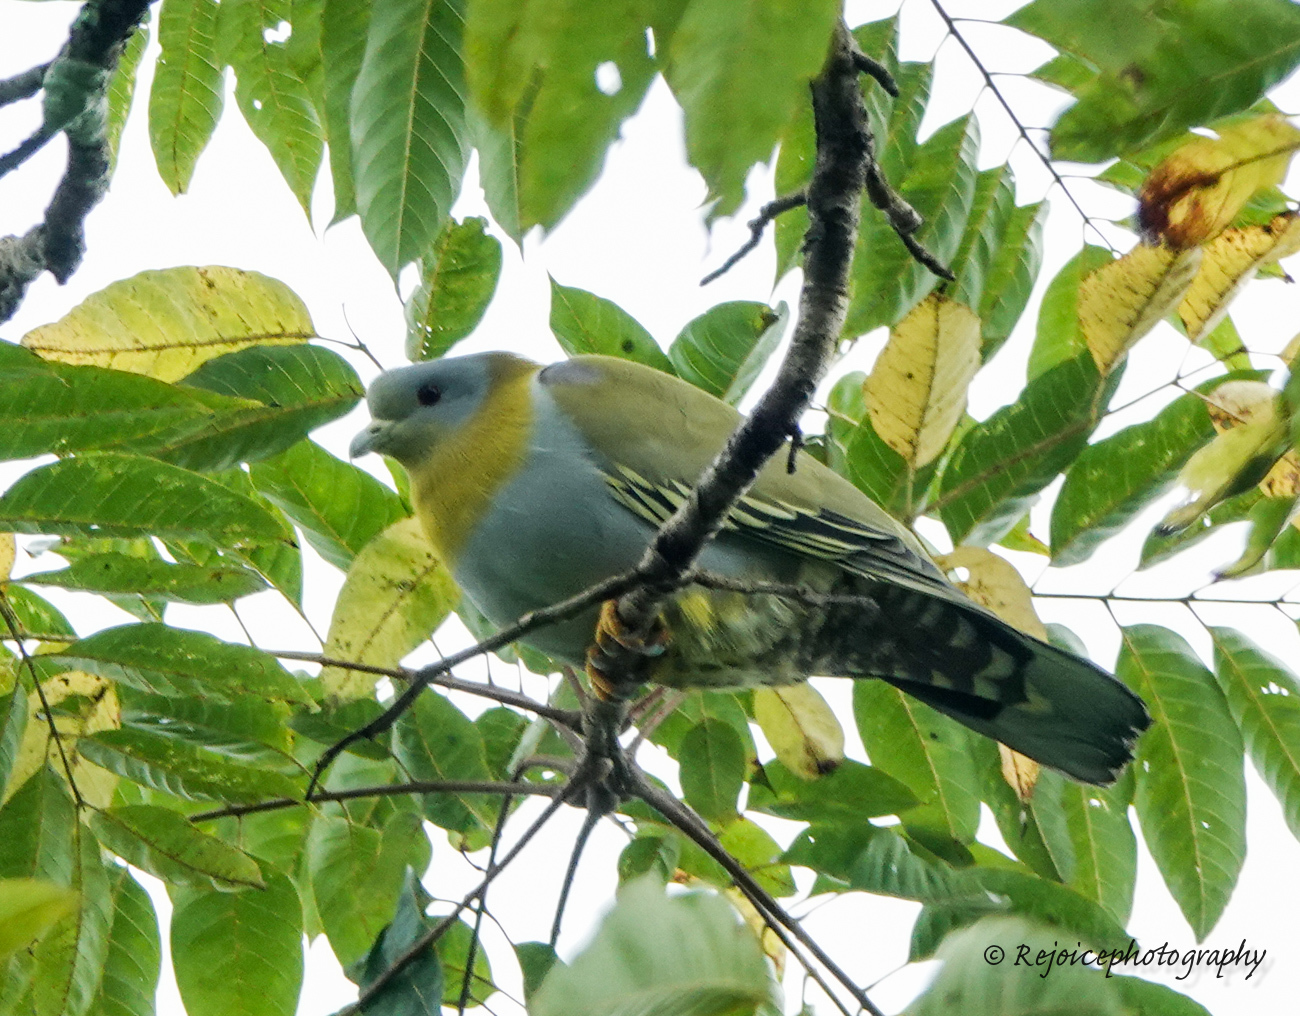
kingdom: Animalia
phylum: Chordata
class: Aves
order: Columbiformes
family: Columbidae
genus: Treron
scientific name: Treron phoenicopterus
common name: Yellow-footed green pigeon
